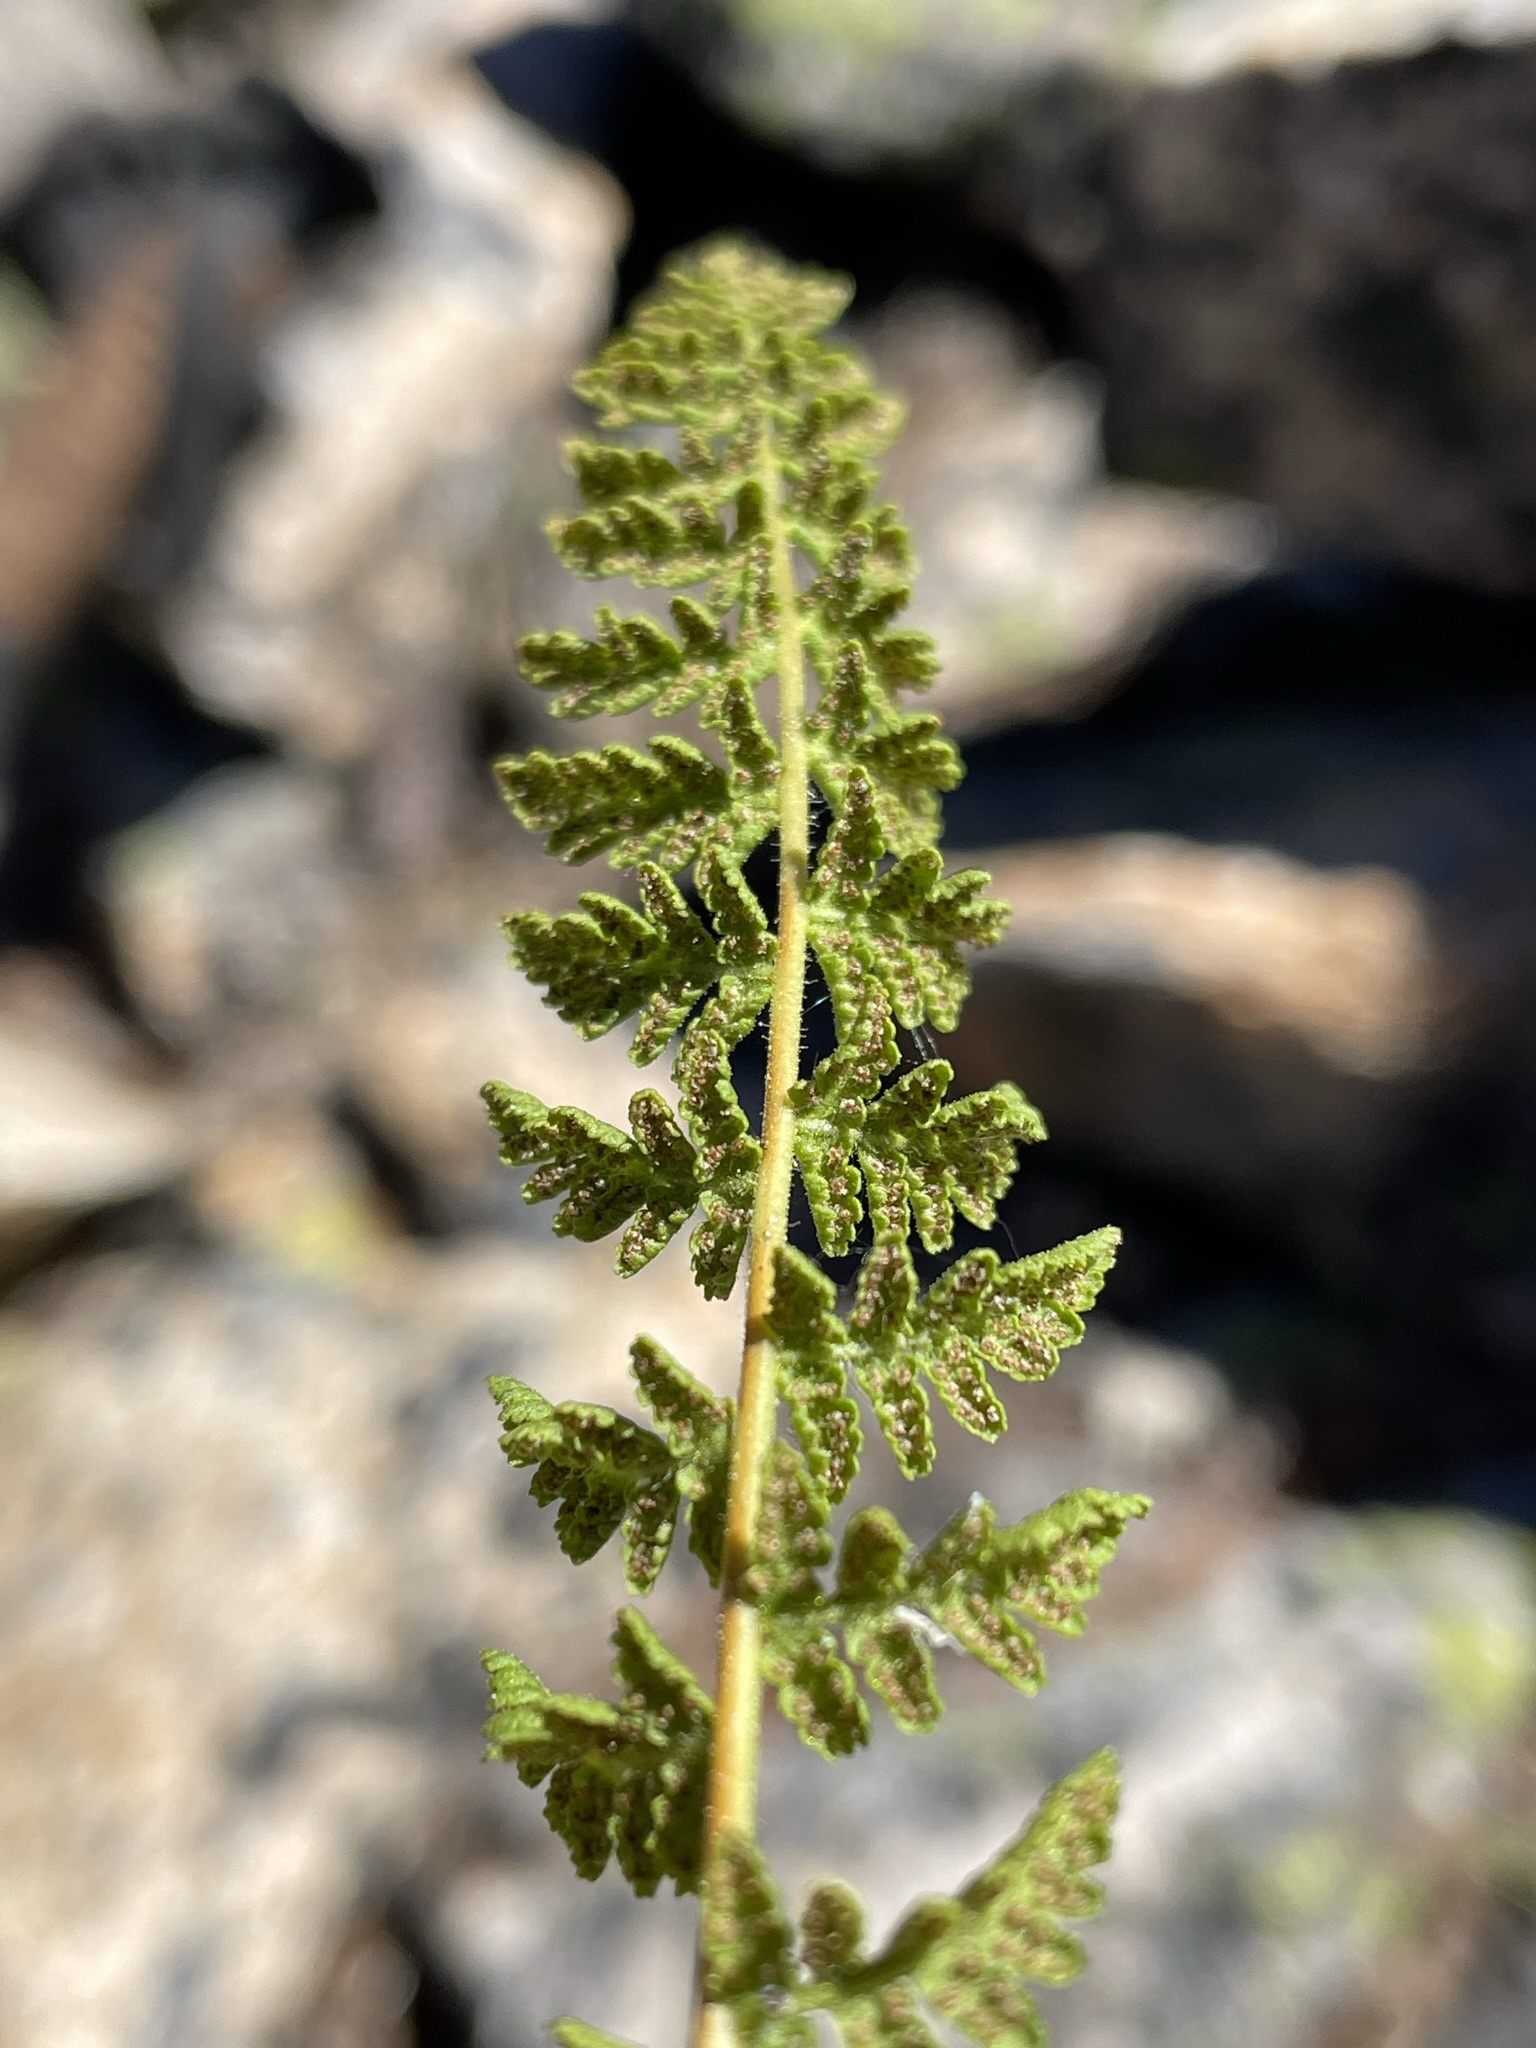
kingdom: Plantae
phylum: Tracheophyta
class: Polypodiopsida
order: Polypodiales
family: Woodsiaceae
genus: Physematium
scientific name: Physematium scopulinum
